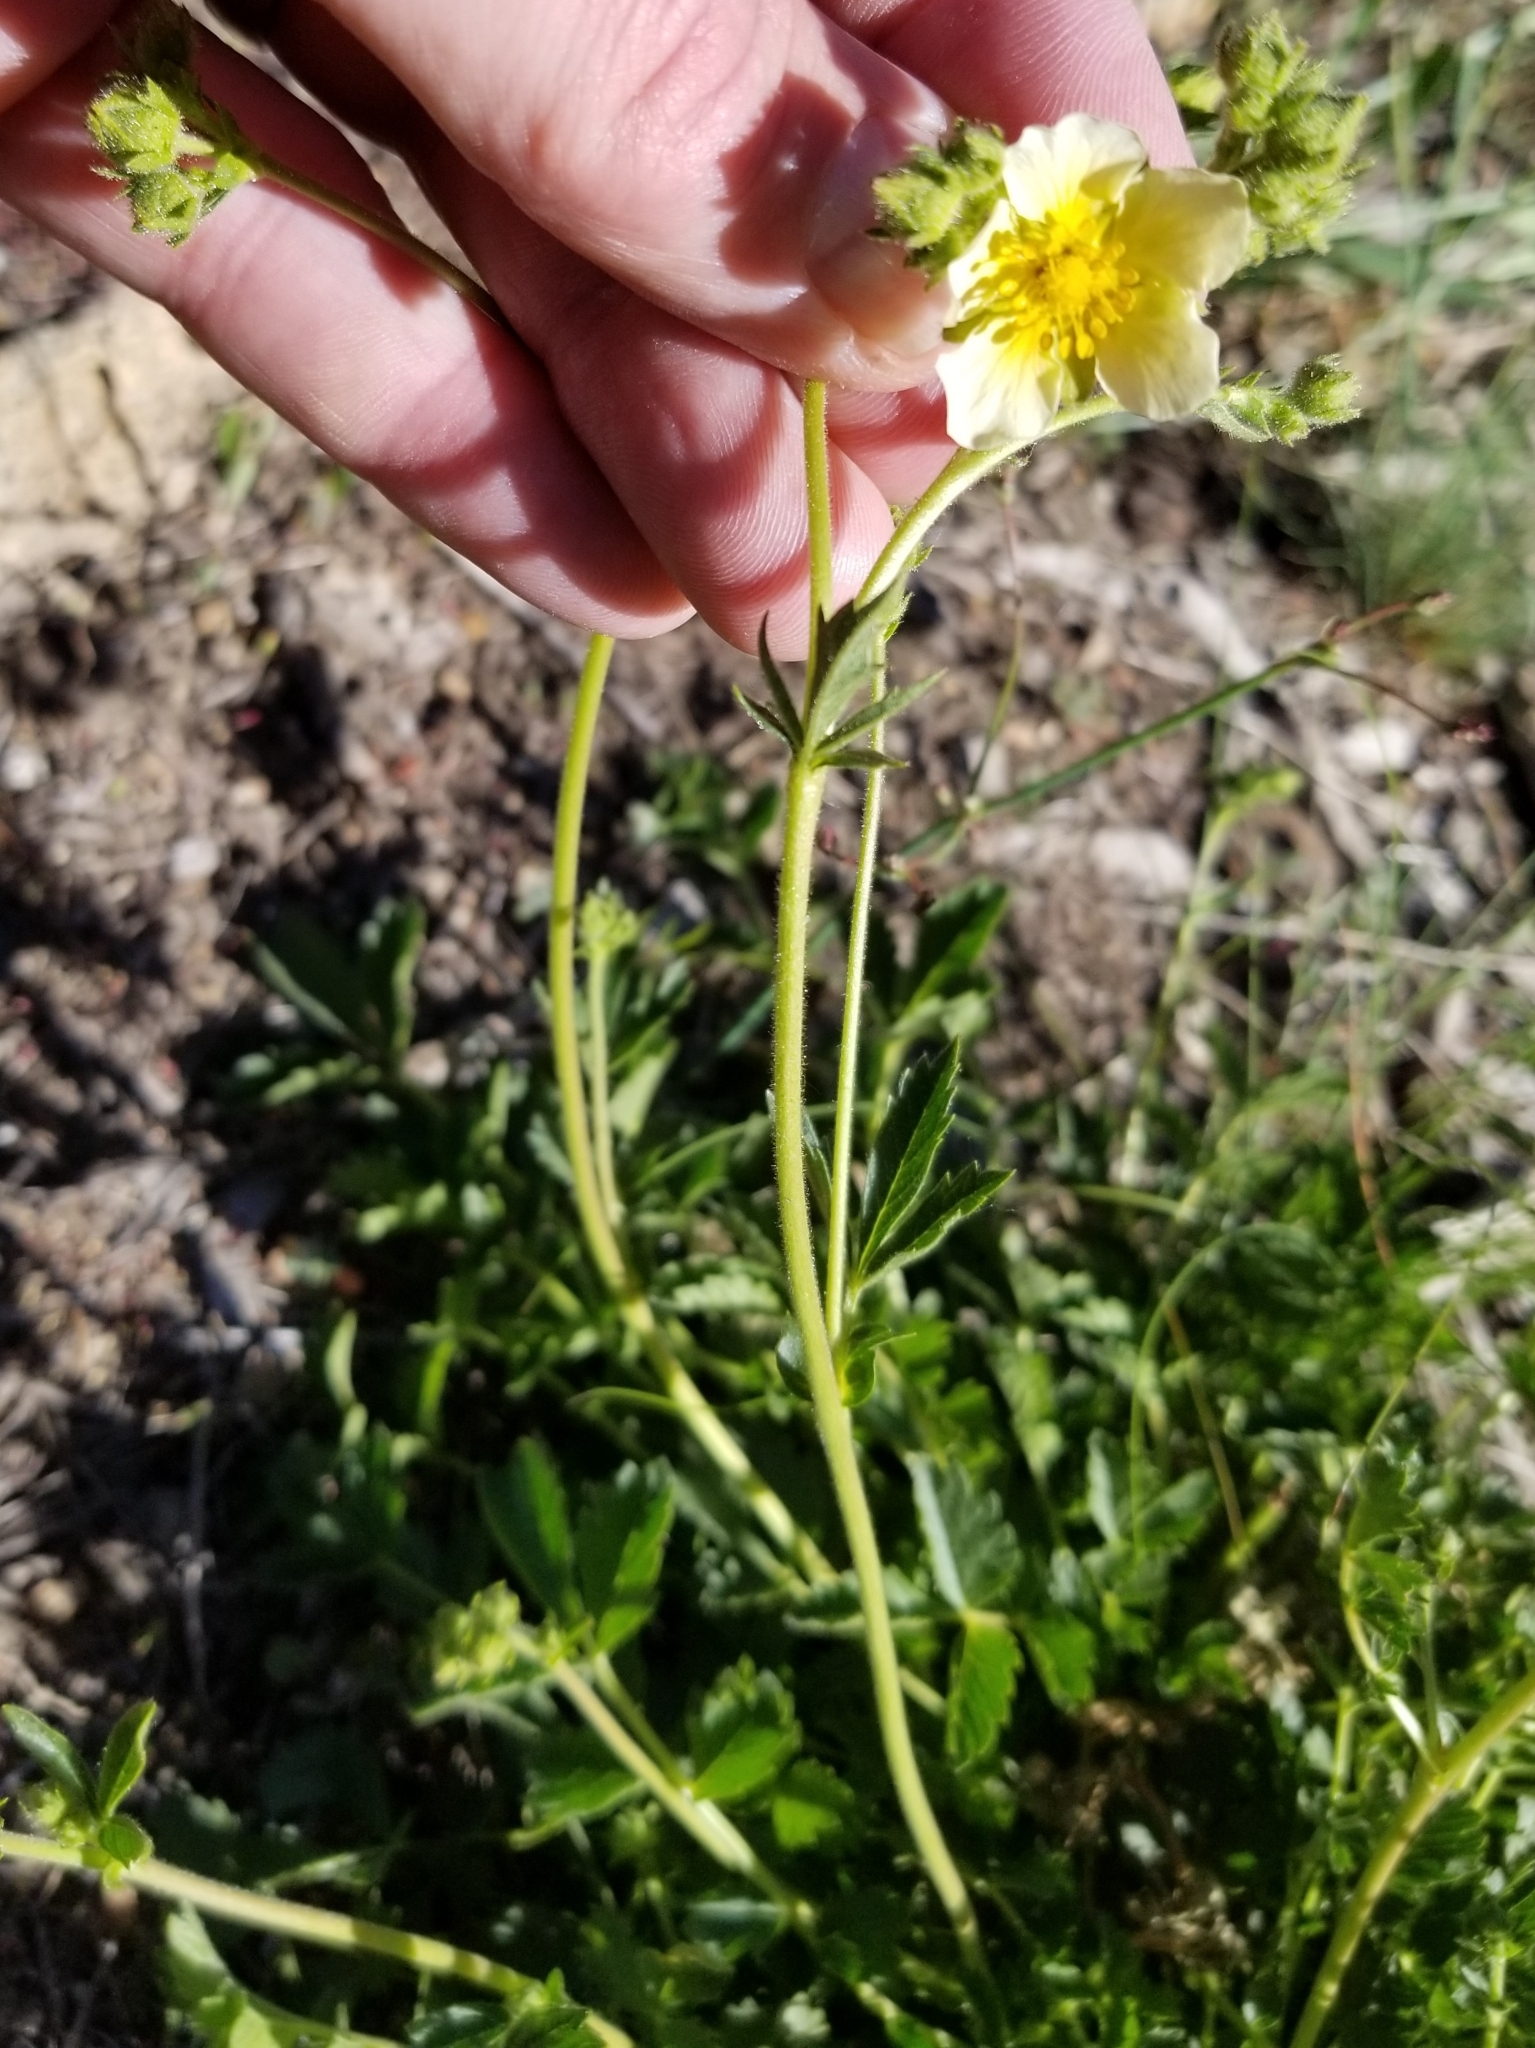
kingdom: Plantae
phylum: Tracheophyta
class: Magnoliopsida
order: Rosales
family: Rosaceae
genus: Drymocallis
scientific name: Drymocallis glandulosa
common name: Sticky cinquefoil
